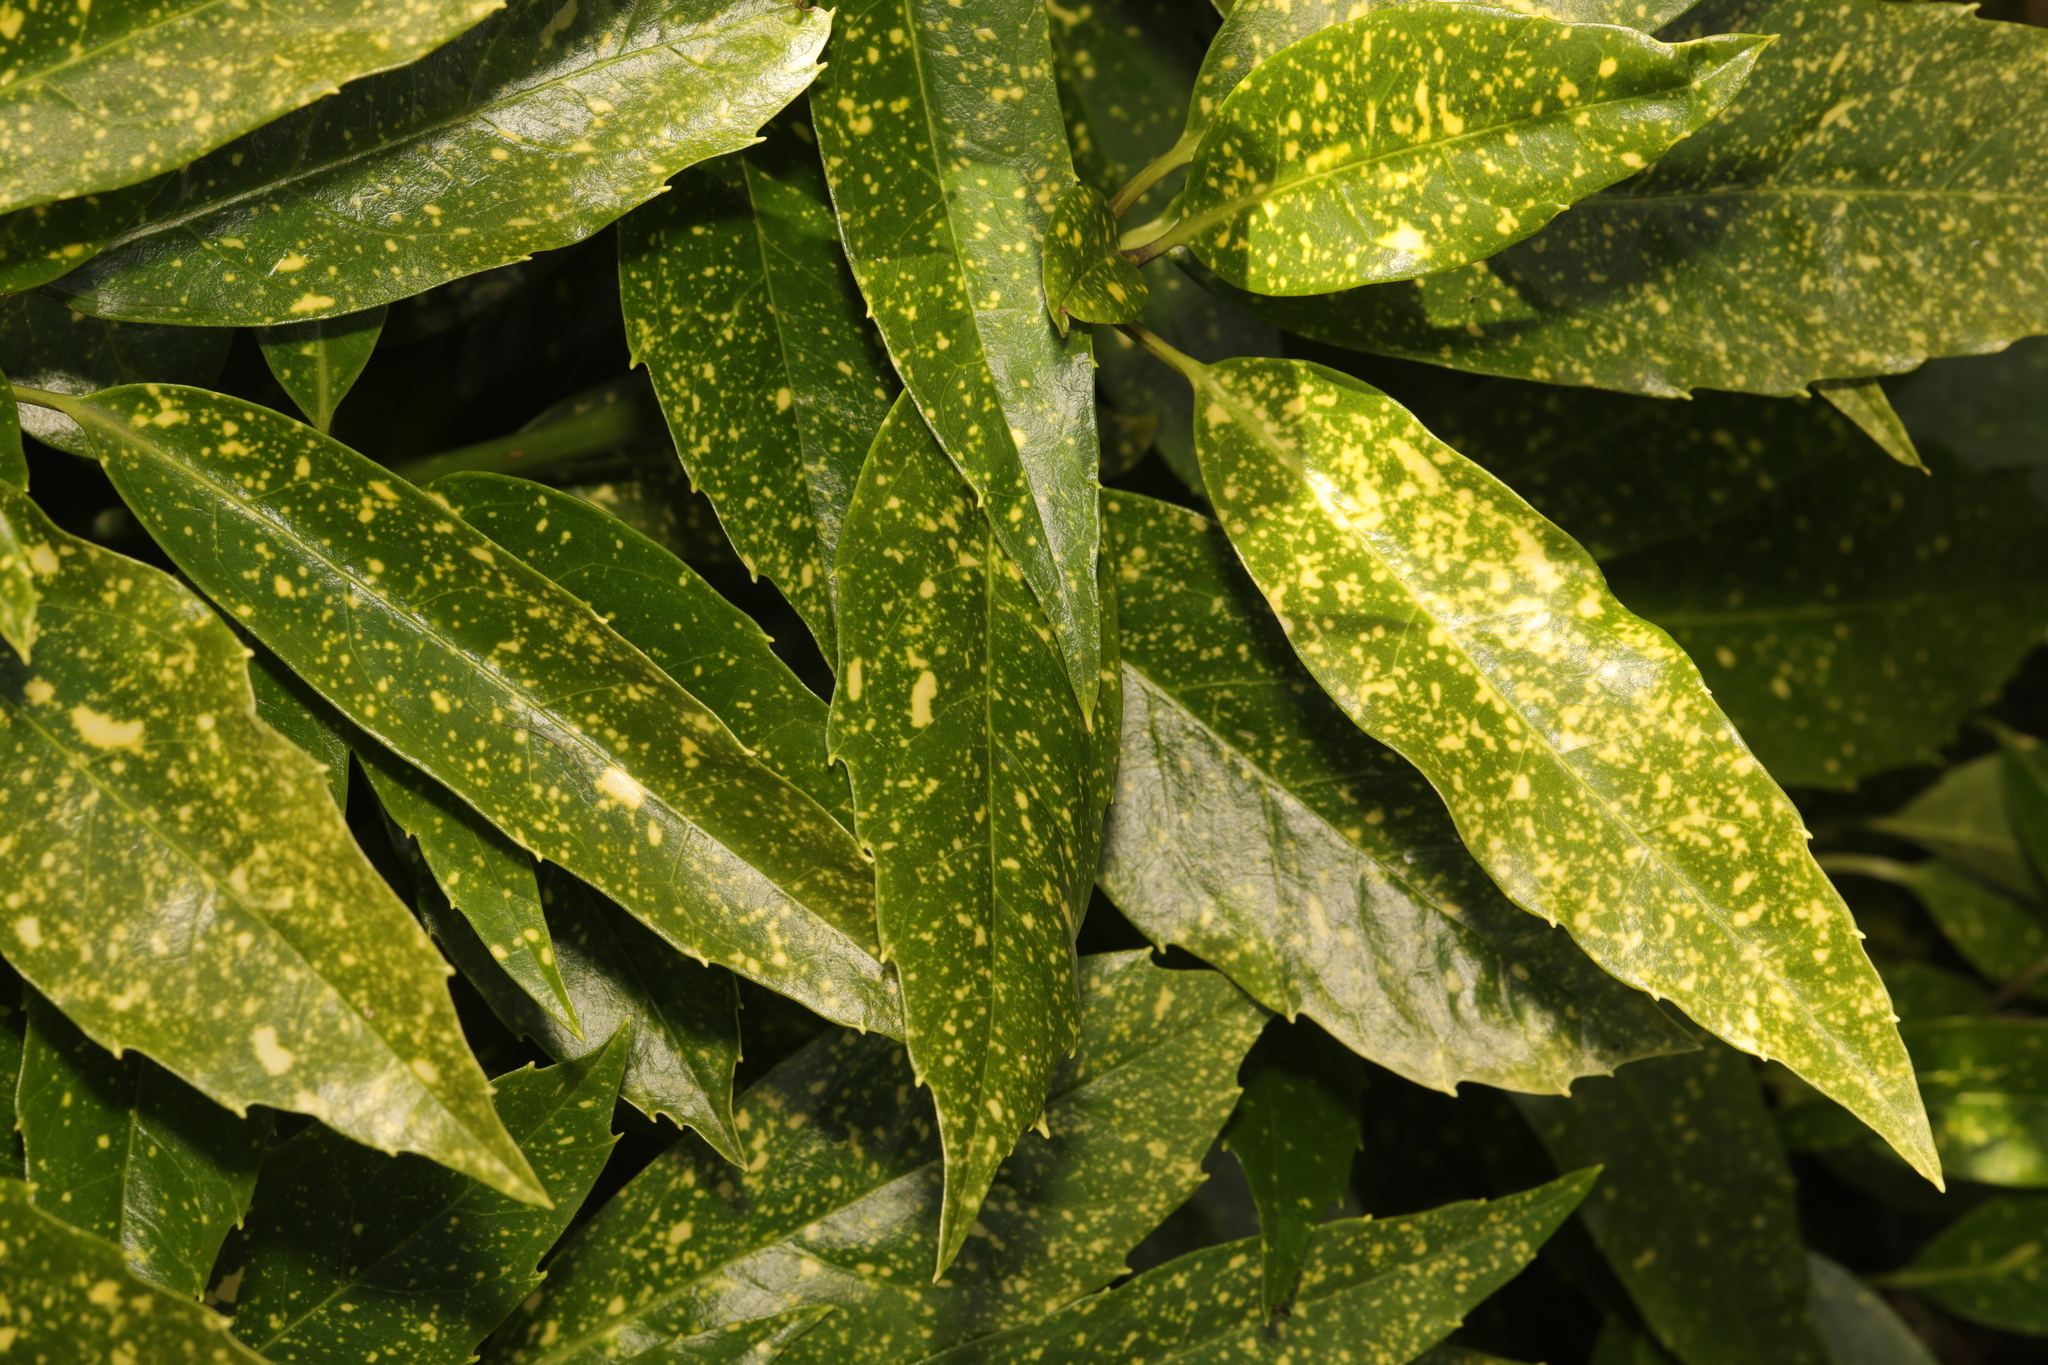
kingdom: Plantae
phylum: Tracheophyta
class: Magnoliopsida
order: Garryales
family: Garryaceae
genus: Aucuba
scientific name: Aucuba japonica
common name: Spotted-laurel
